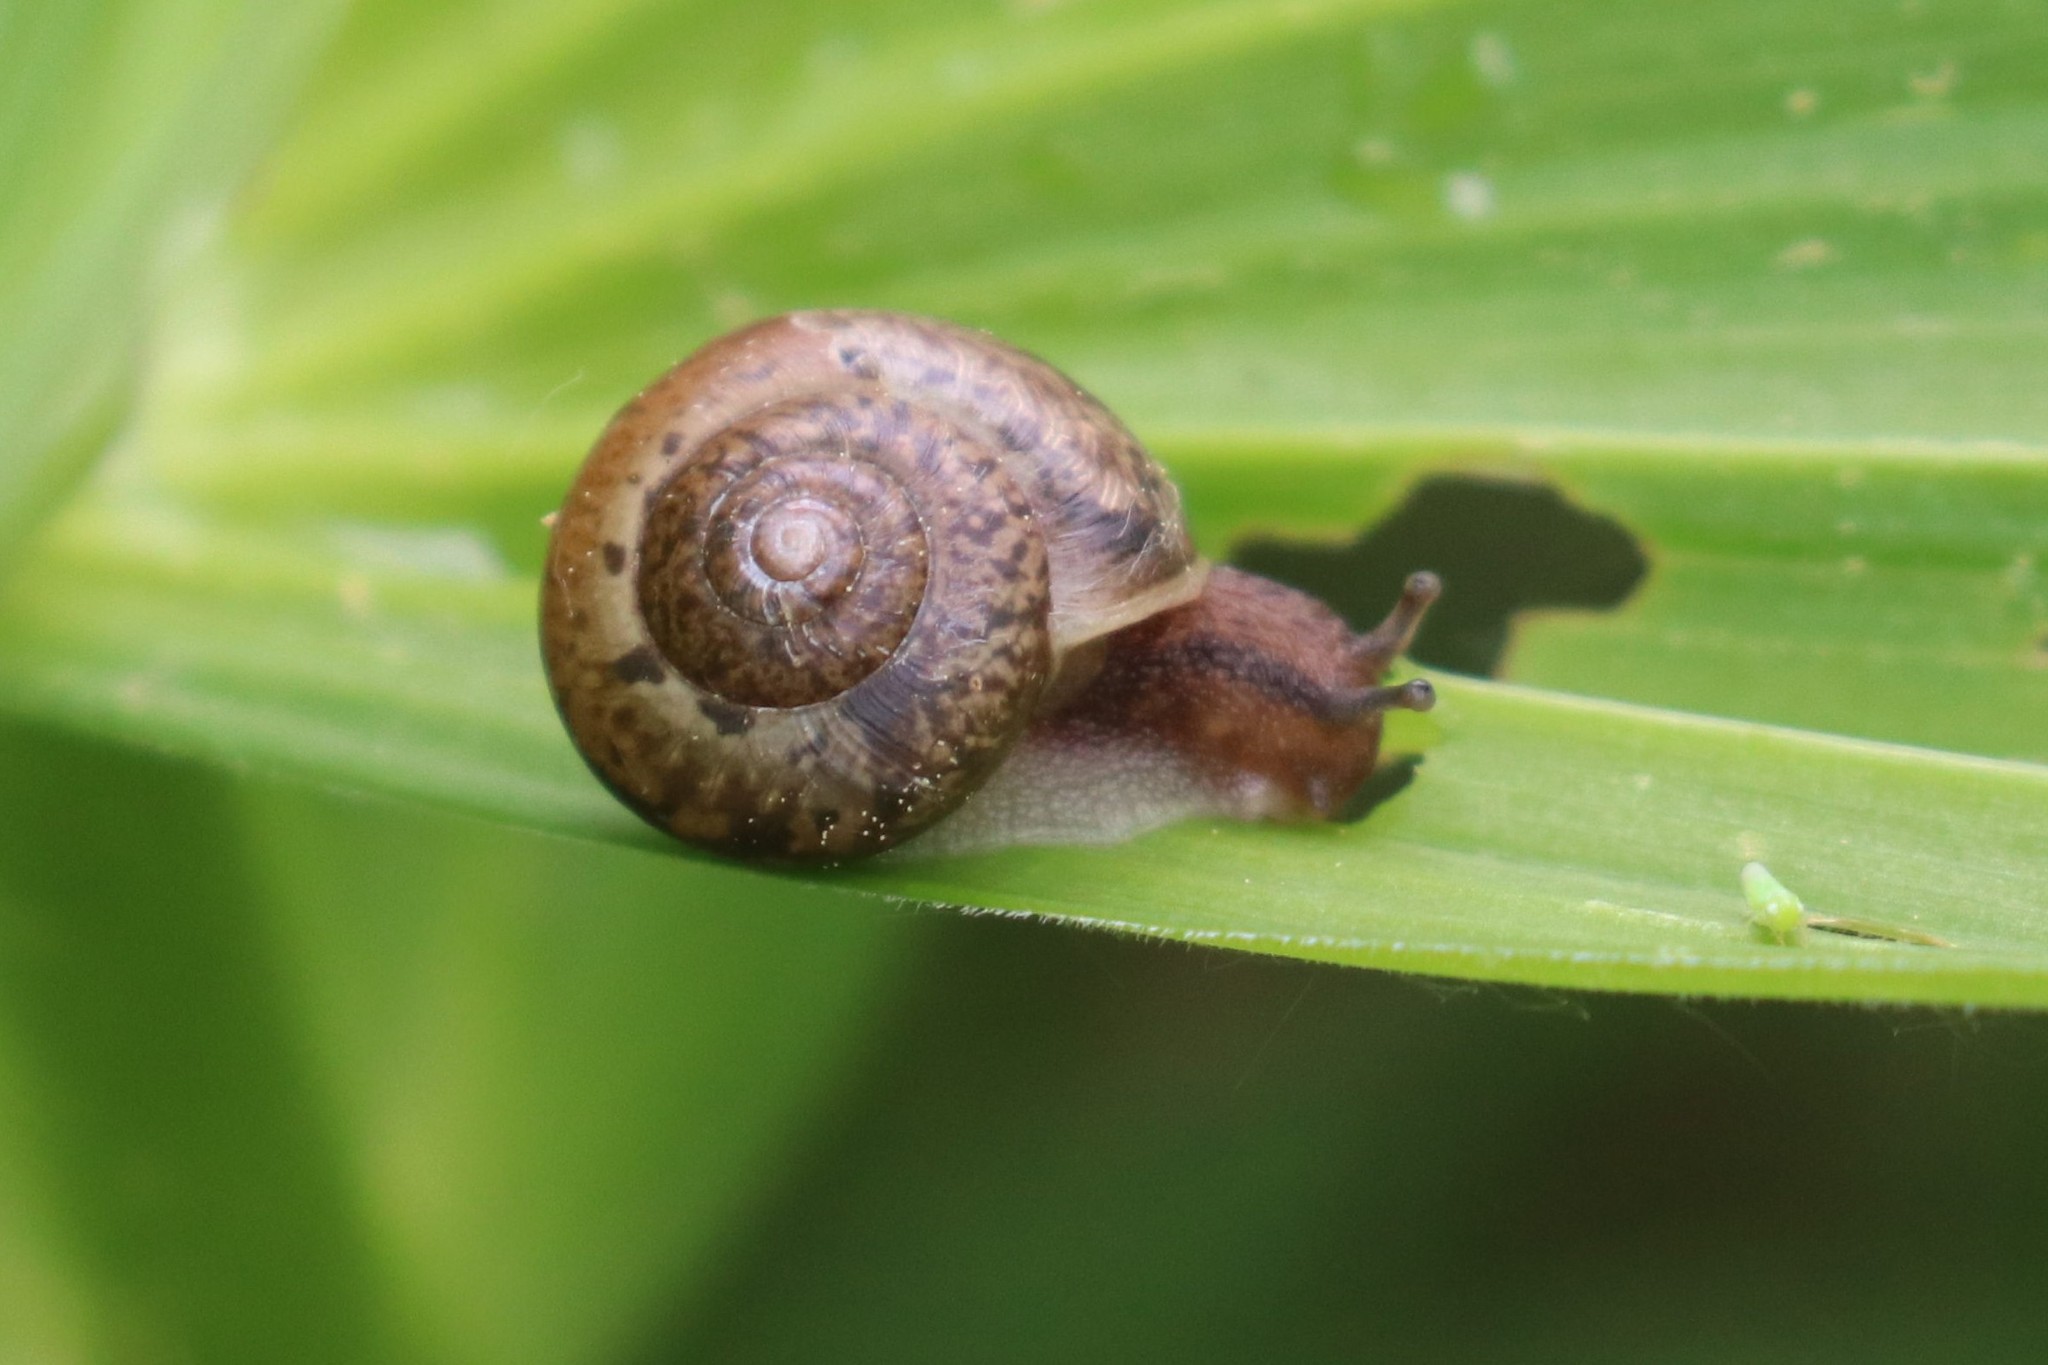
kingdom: Animalia
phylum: Mollusca
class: Gastropoda
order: Stylommatophora
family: Camaenidae
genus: Fruticicola
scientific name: Fruticicola fruticum
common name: Bush snail
